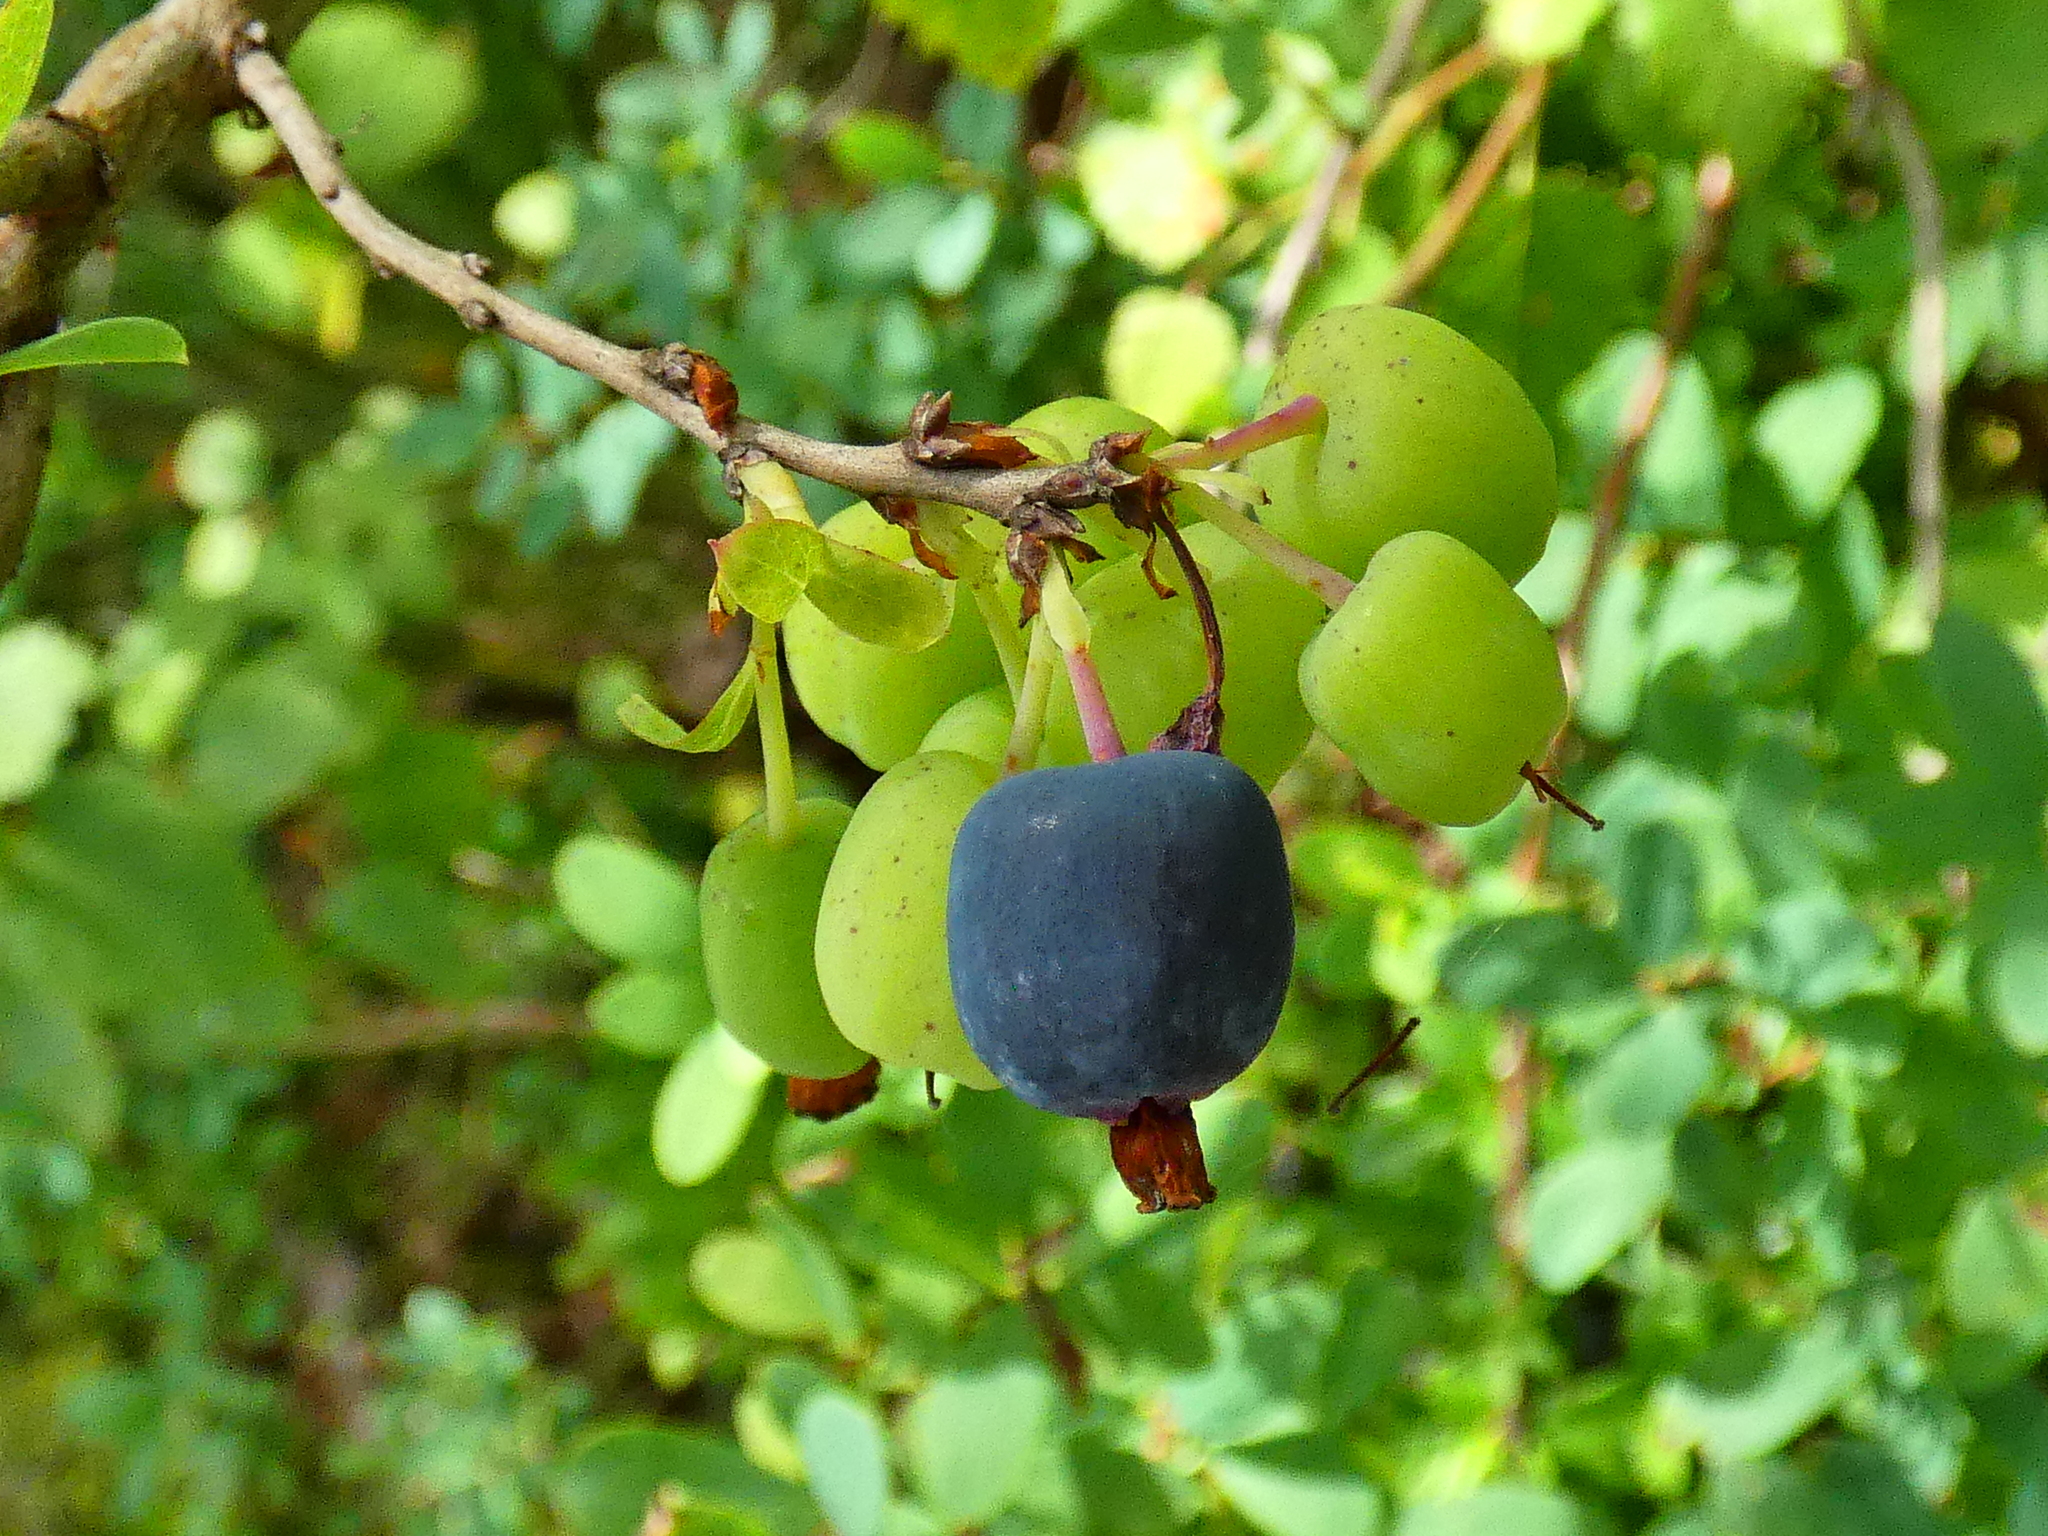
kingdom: Plantae
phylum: Tracheophyta
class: Magnoliopsida
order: Ericales
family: Ericaceae
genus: Vaccinium
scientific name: Vaccinium uliginosum
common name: Bog bilberry
